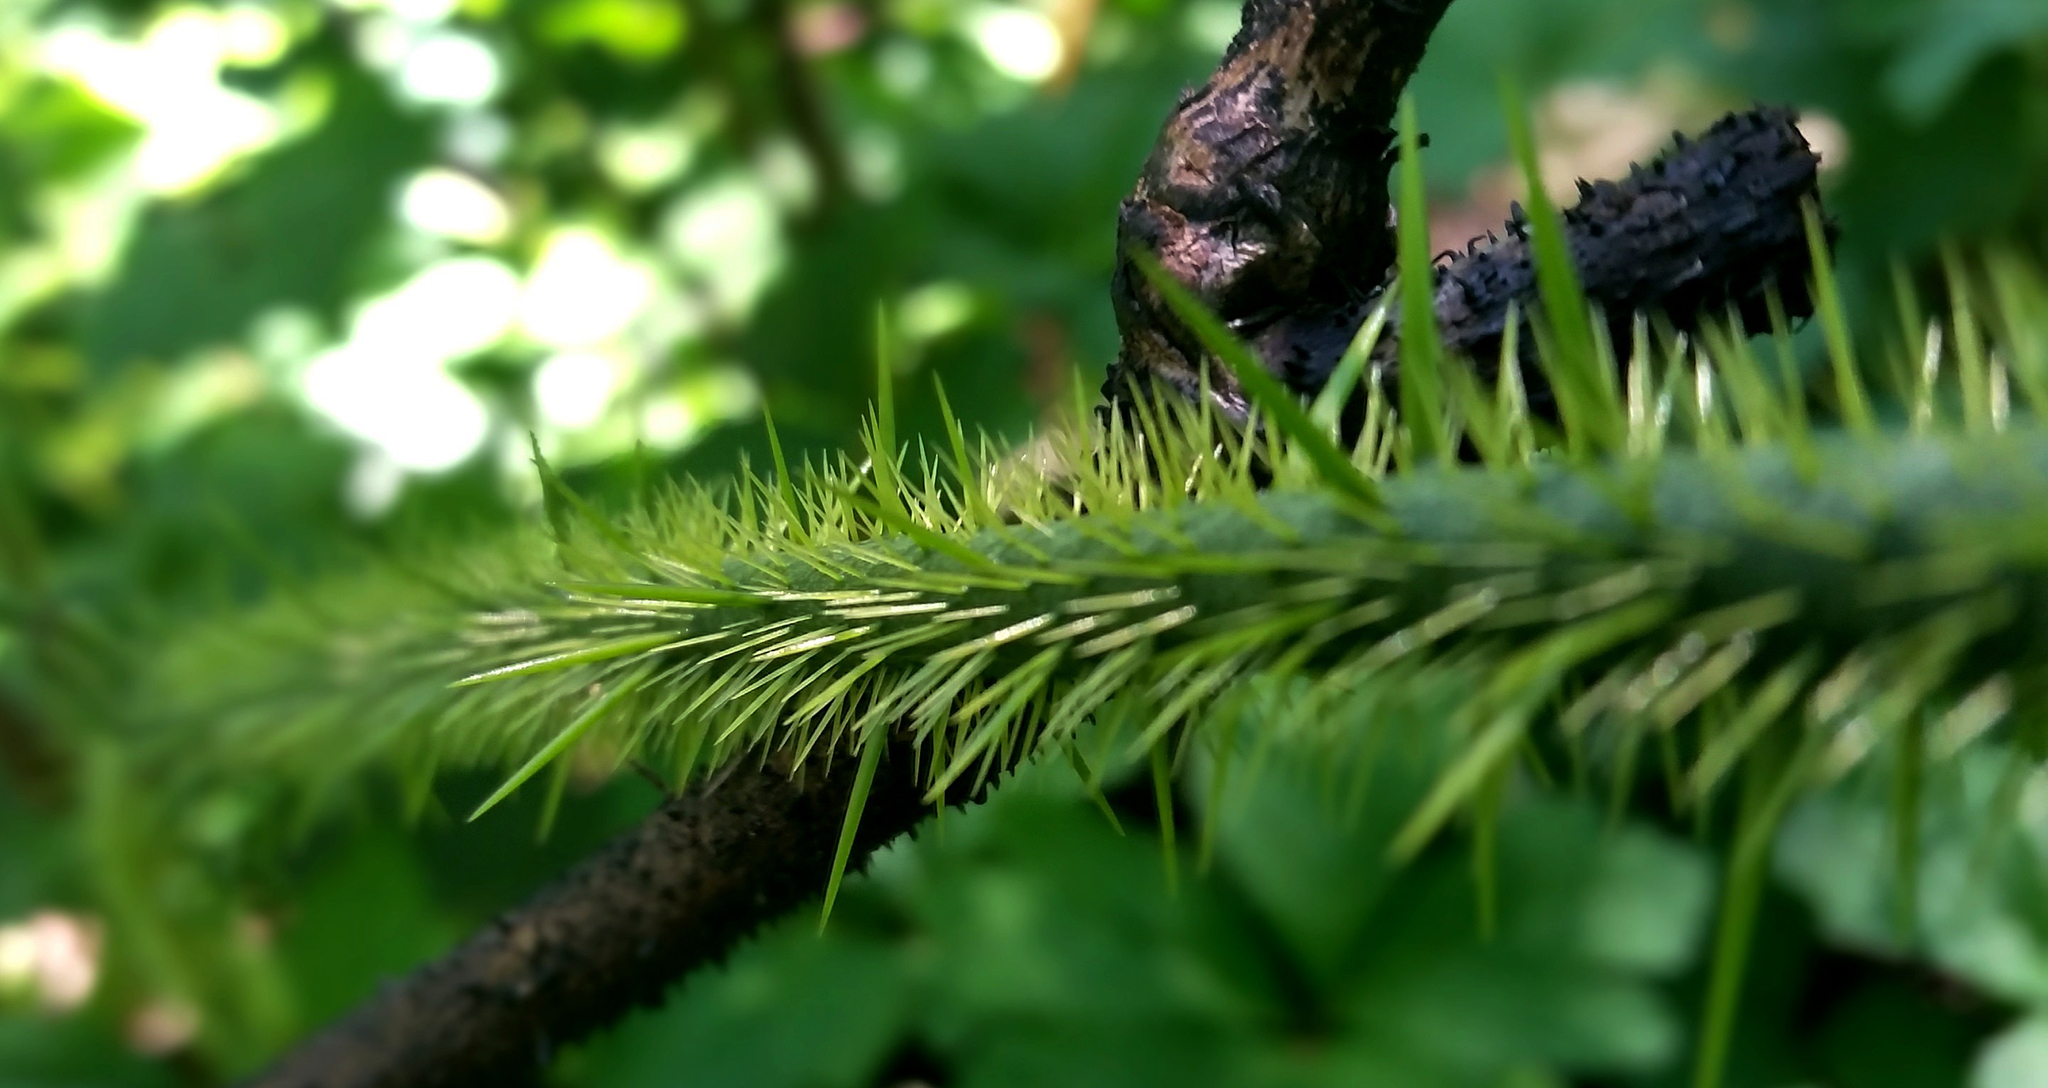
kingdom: Plantae
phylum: Tracheophyta
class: Liliopsida
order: Liliales
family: Smilacaceae
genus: Smilax
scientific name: Smilax tamnoides
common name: Hellfetter
